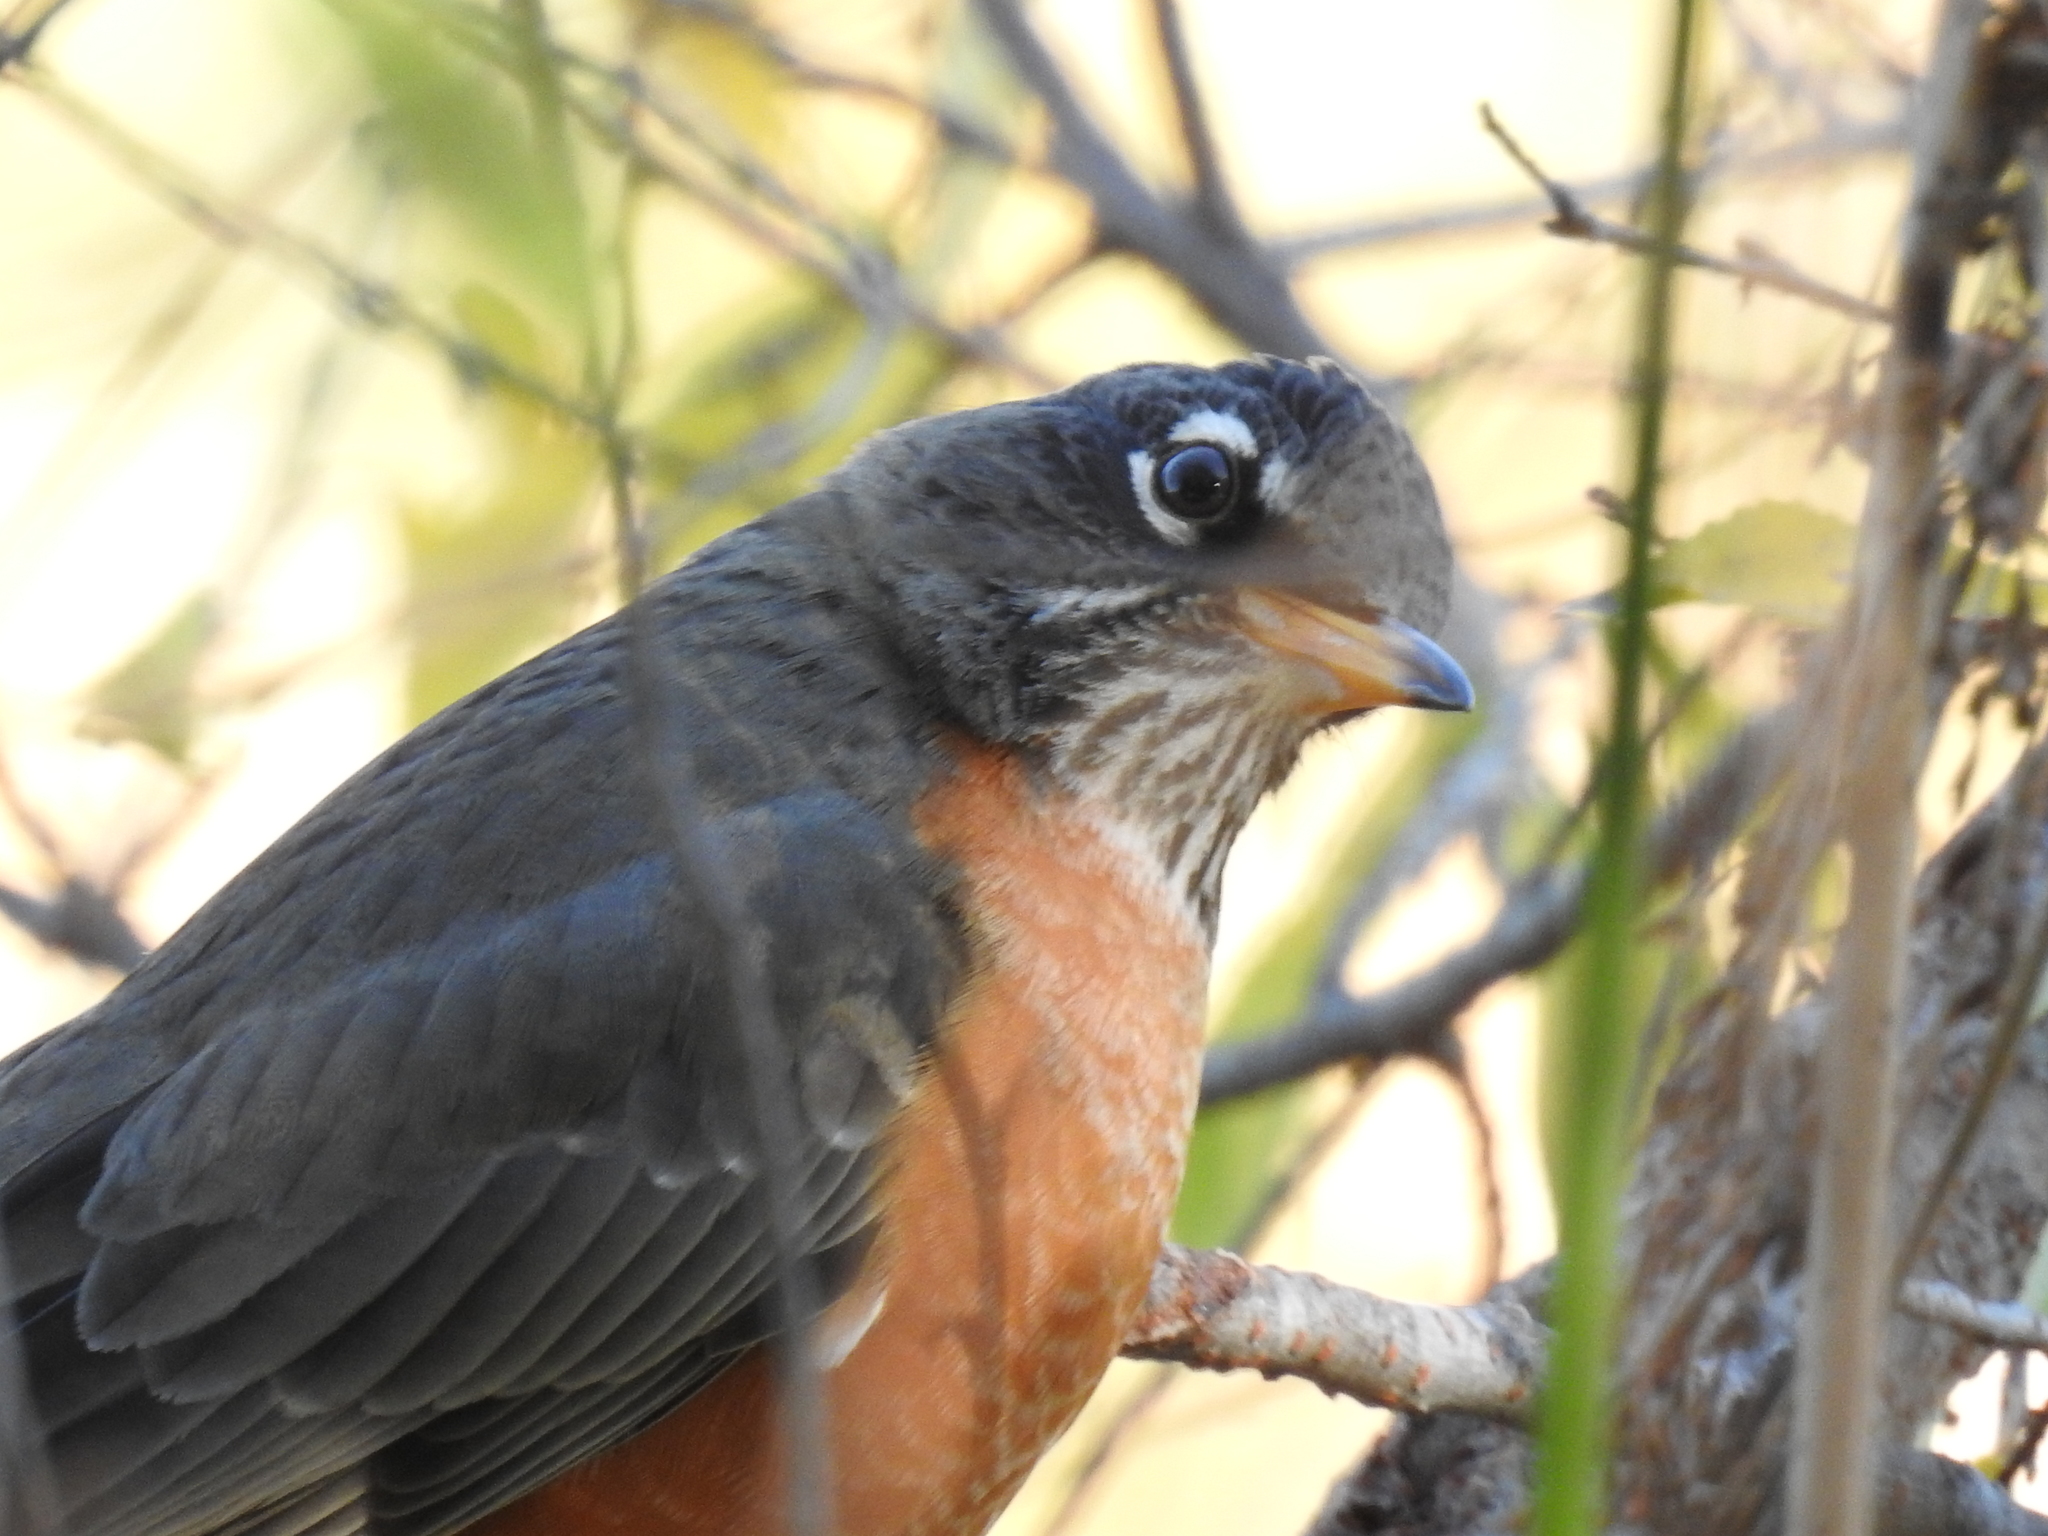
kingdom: Animalia
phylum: Chordata
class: Aves
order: Passeriformes
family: Turdidae
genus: Turdus
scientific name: Turdus migratorius
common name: American robin
